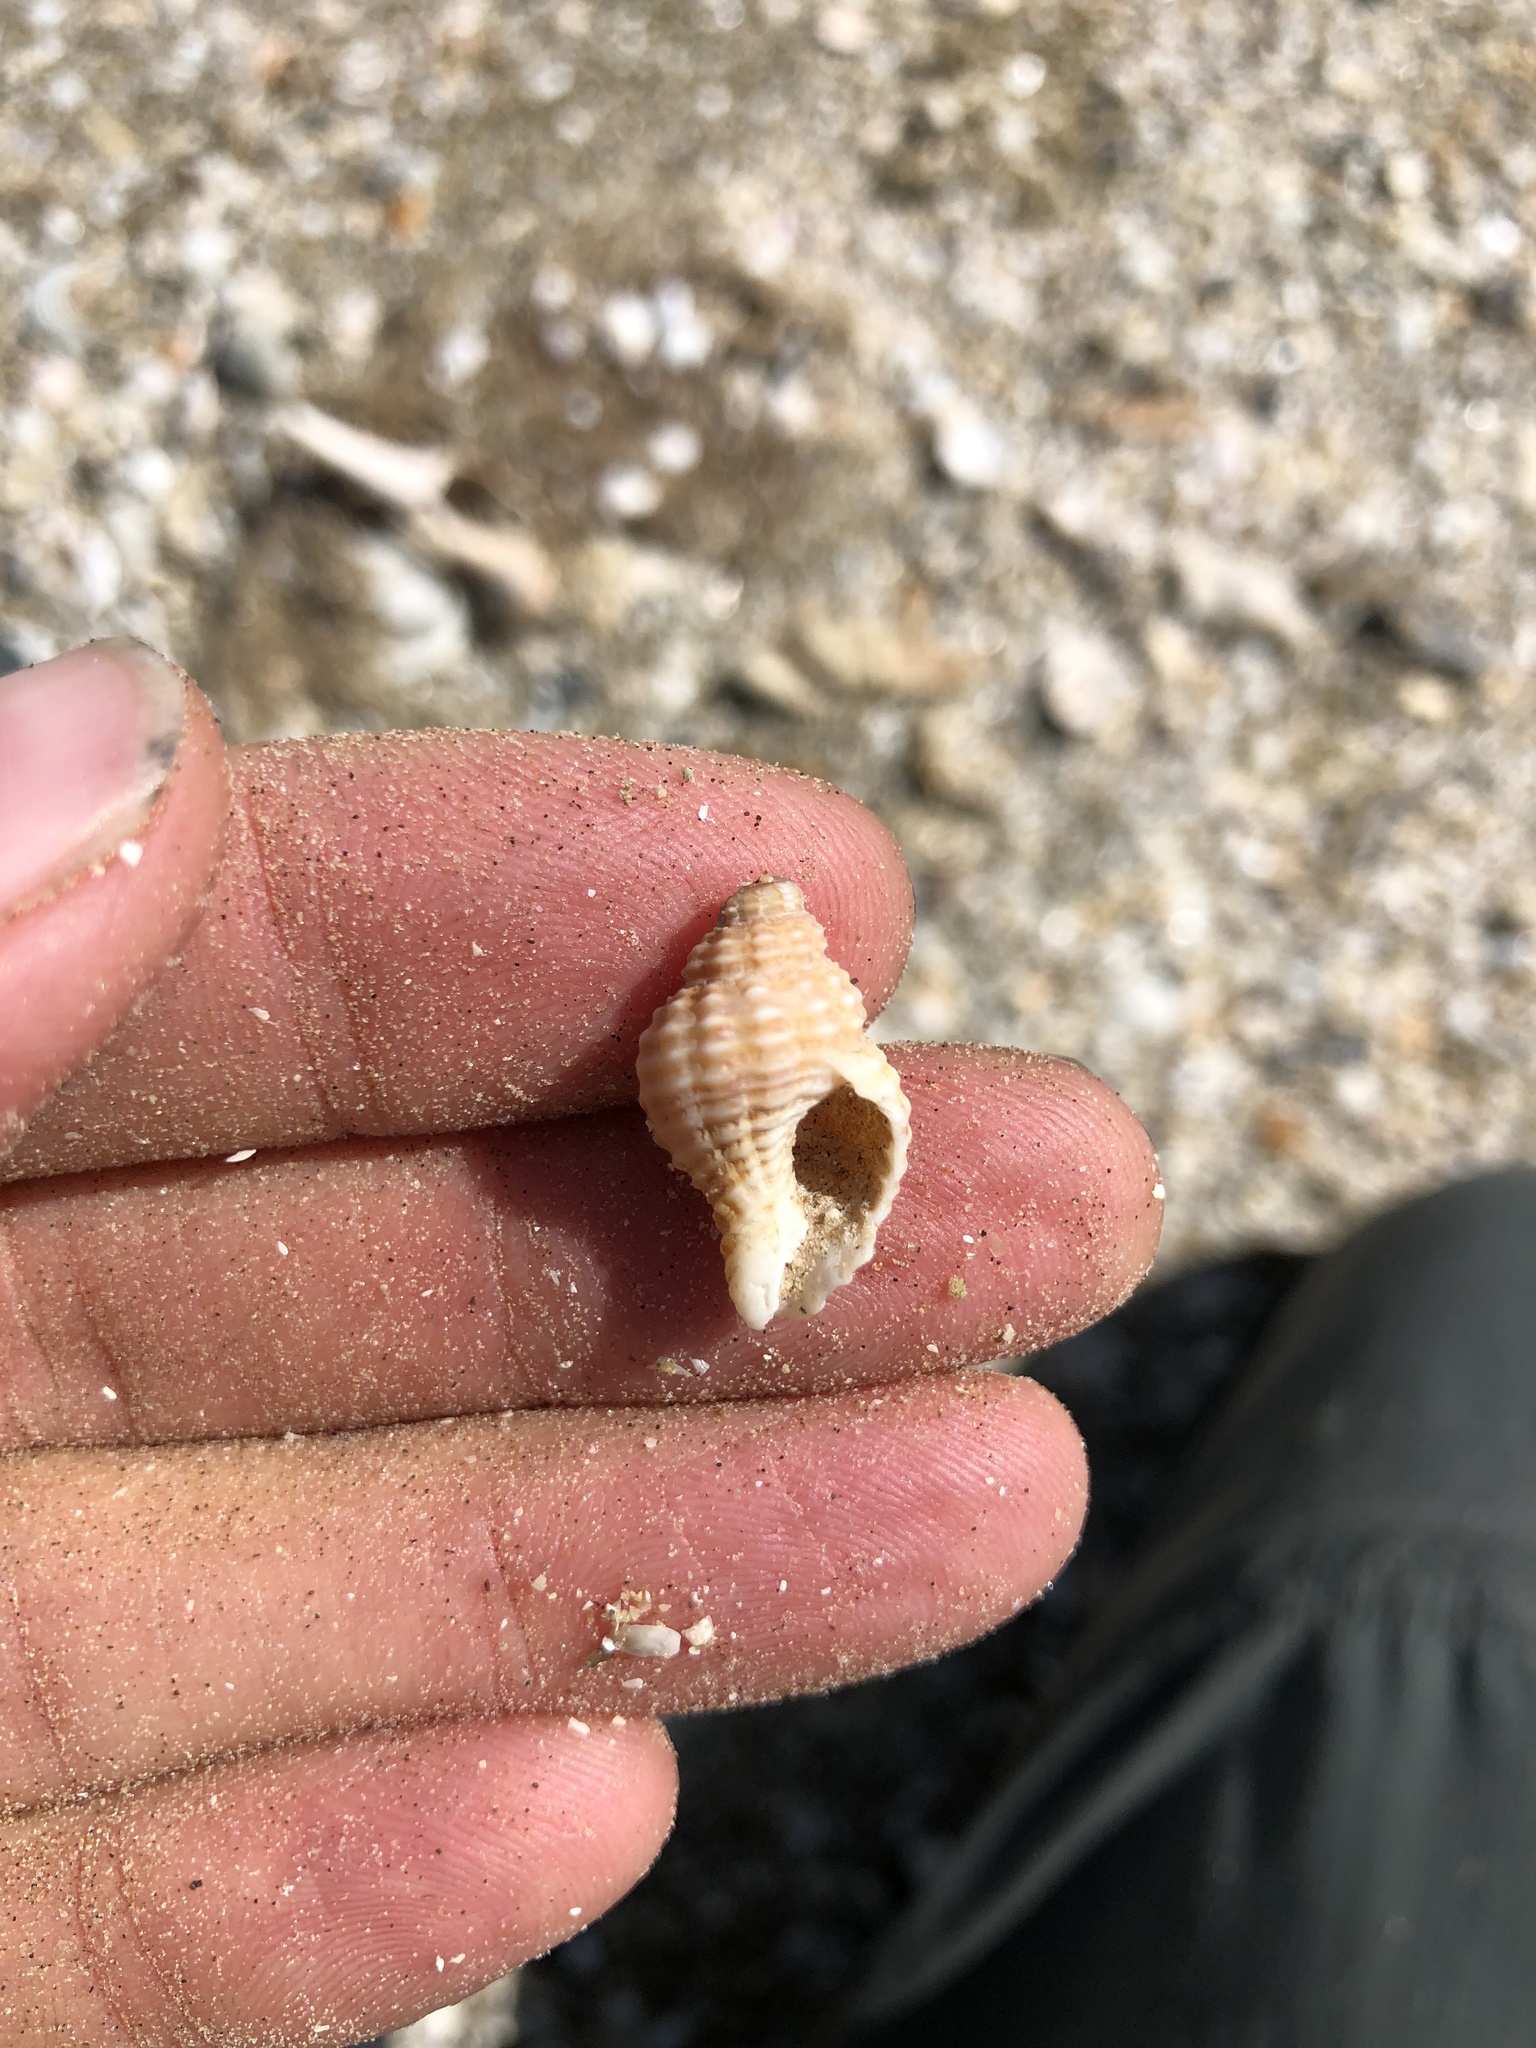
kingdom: Animalia
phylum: Mollusca
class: Gastropoda
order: Neogastropoda
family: Pisaniidae
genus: Solenosteira
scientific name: Solenosteira cancellaria
